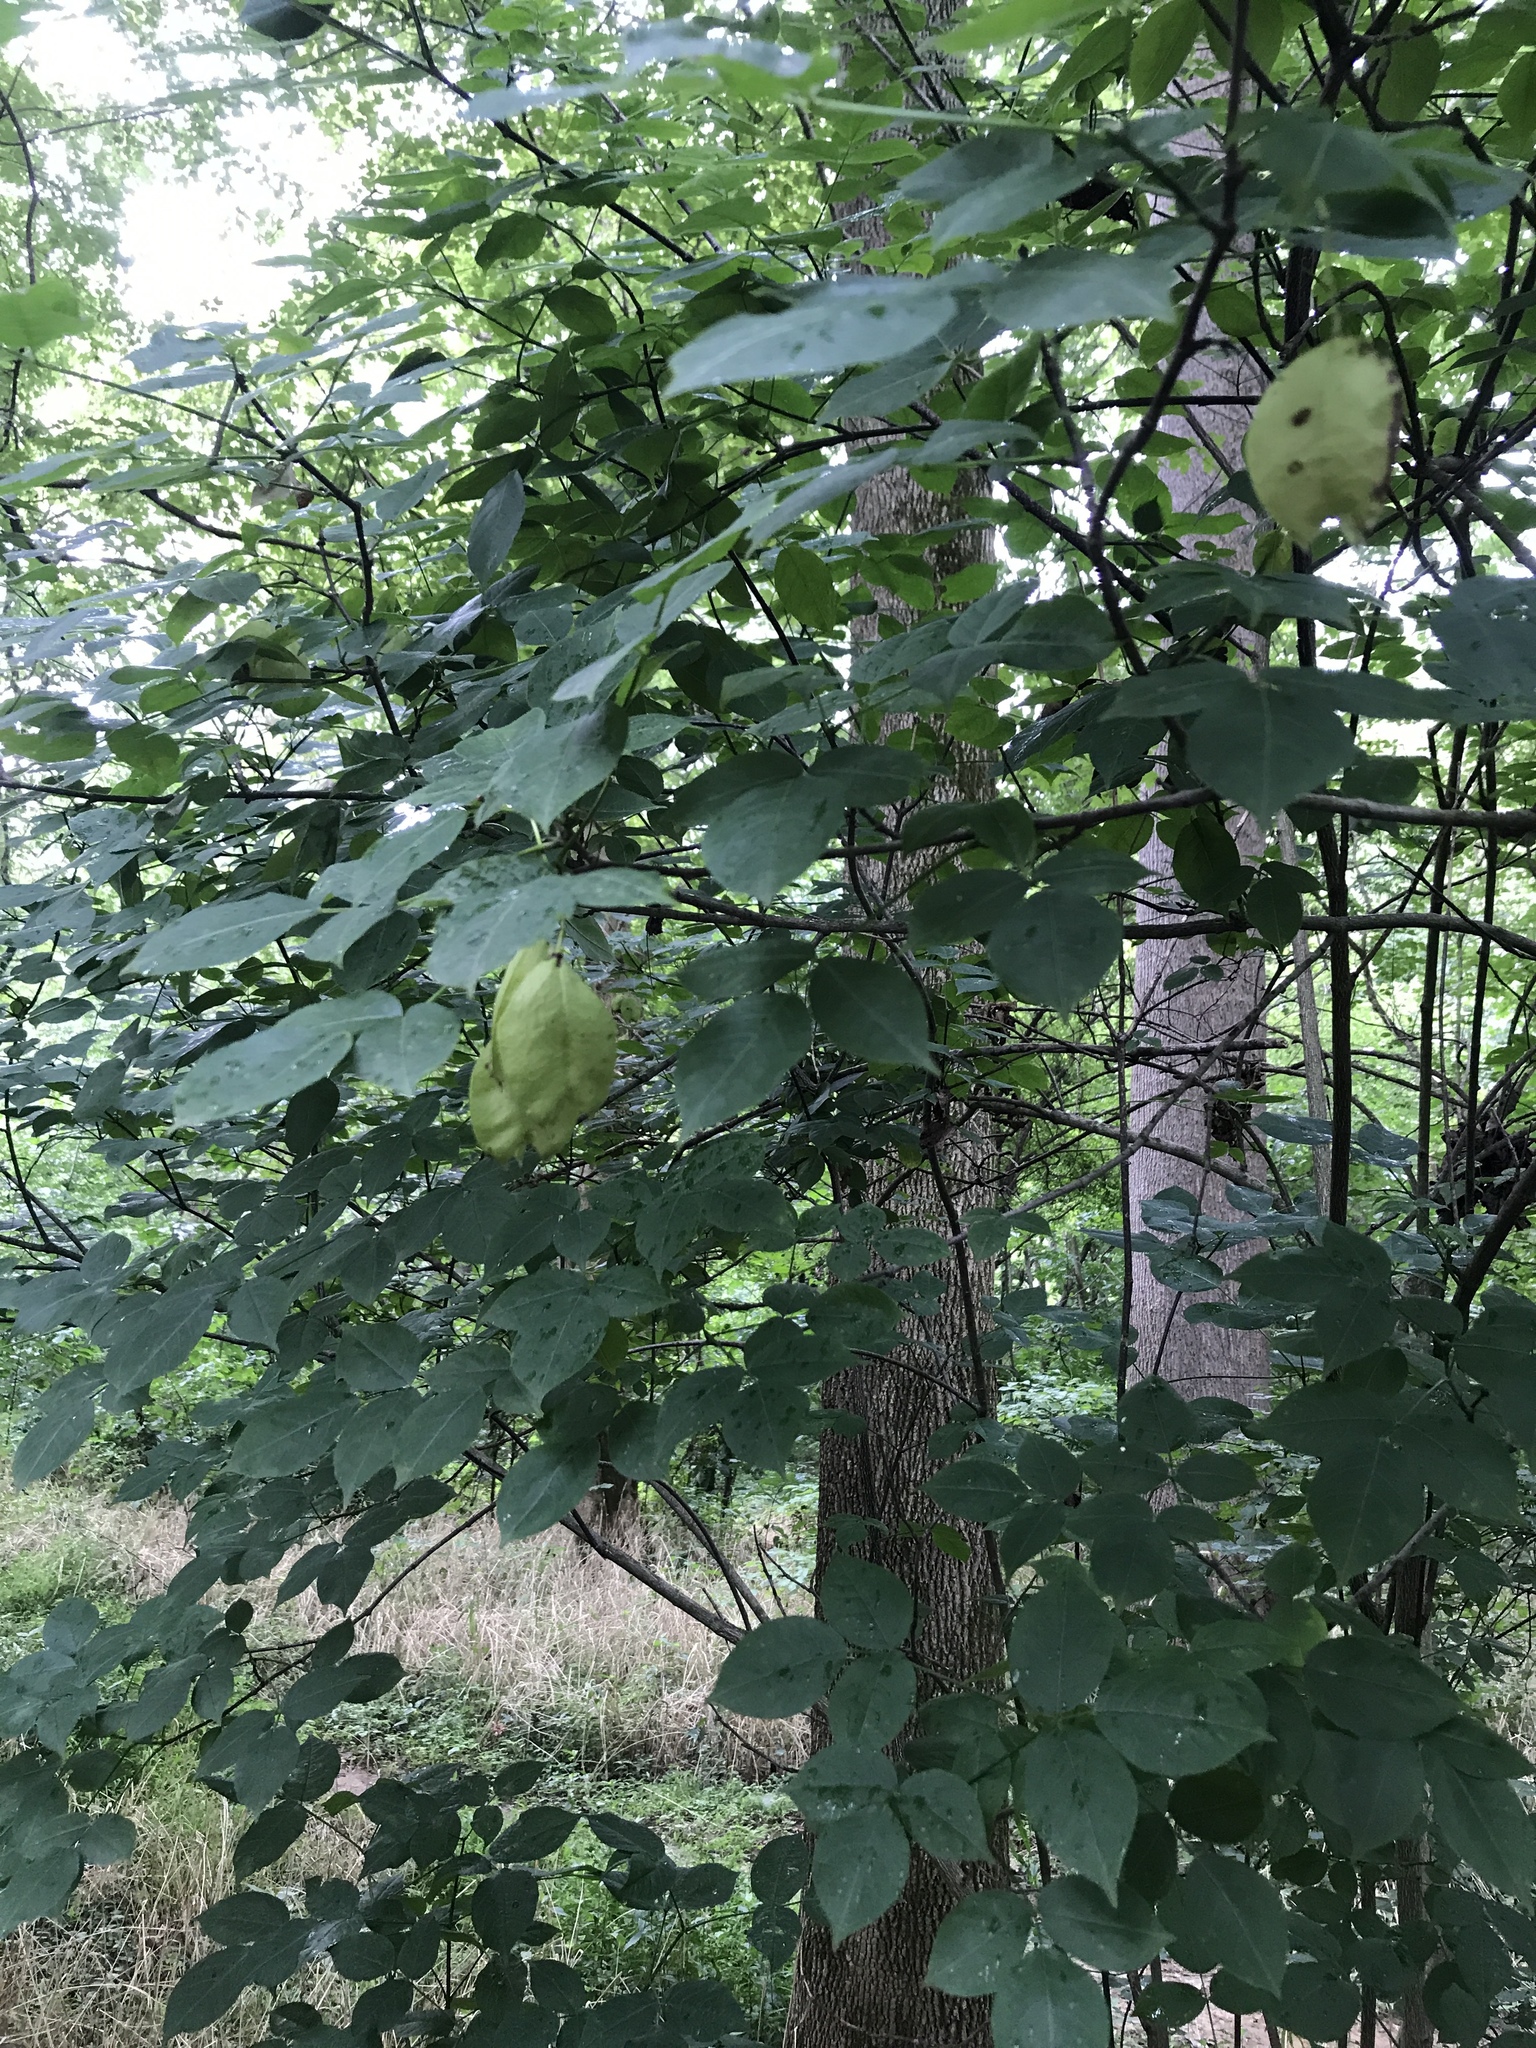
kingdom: Plantae
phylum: Tracheophyta
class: Magnoliopsida
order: Crossosomatales
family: Staphyleaceae
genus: Staphylea
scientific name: Staphylea trifolia
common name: American bladdernut
